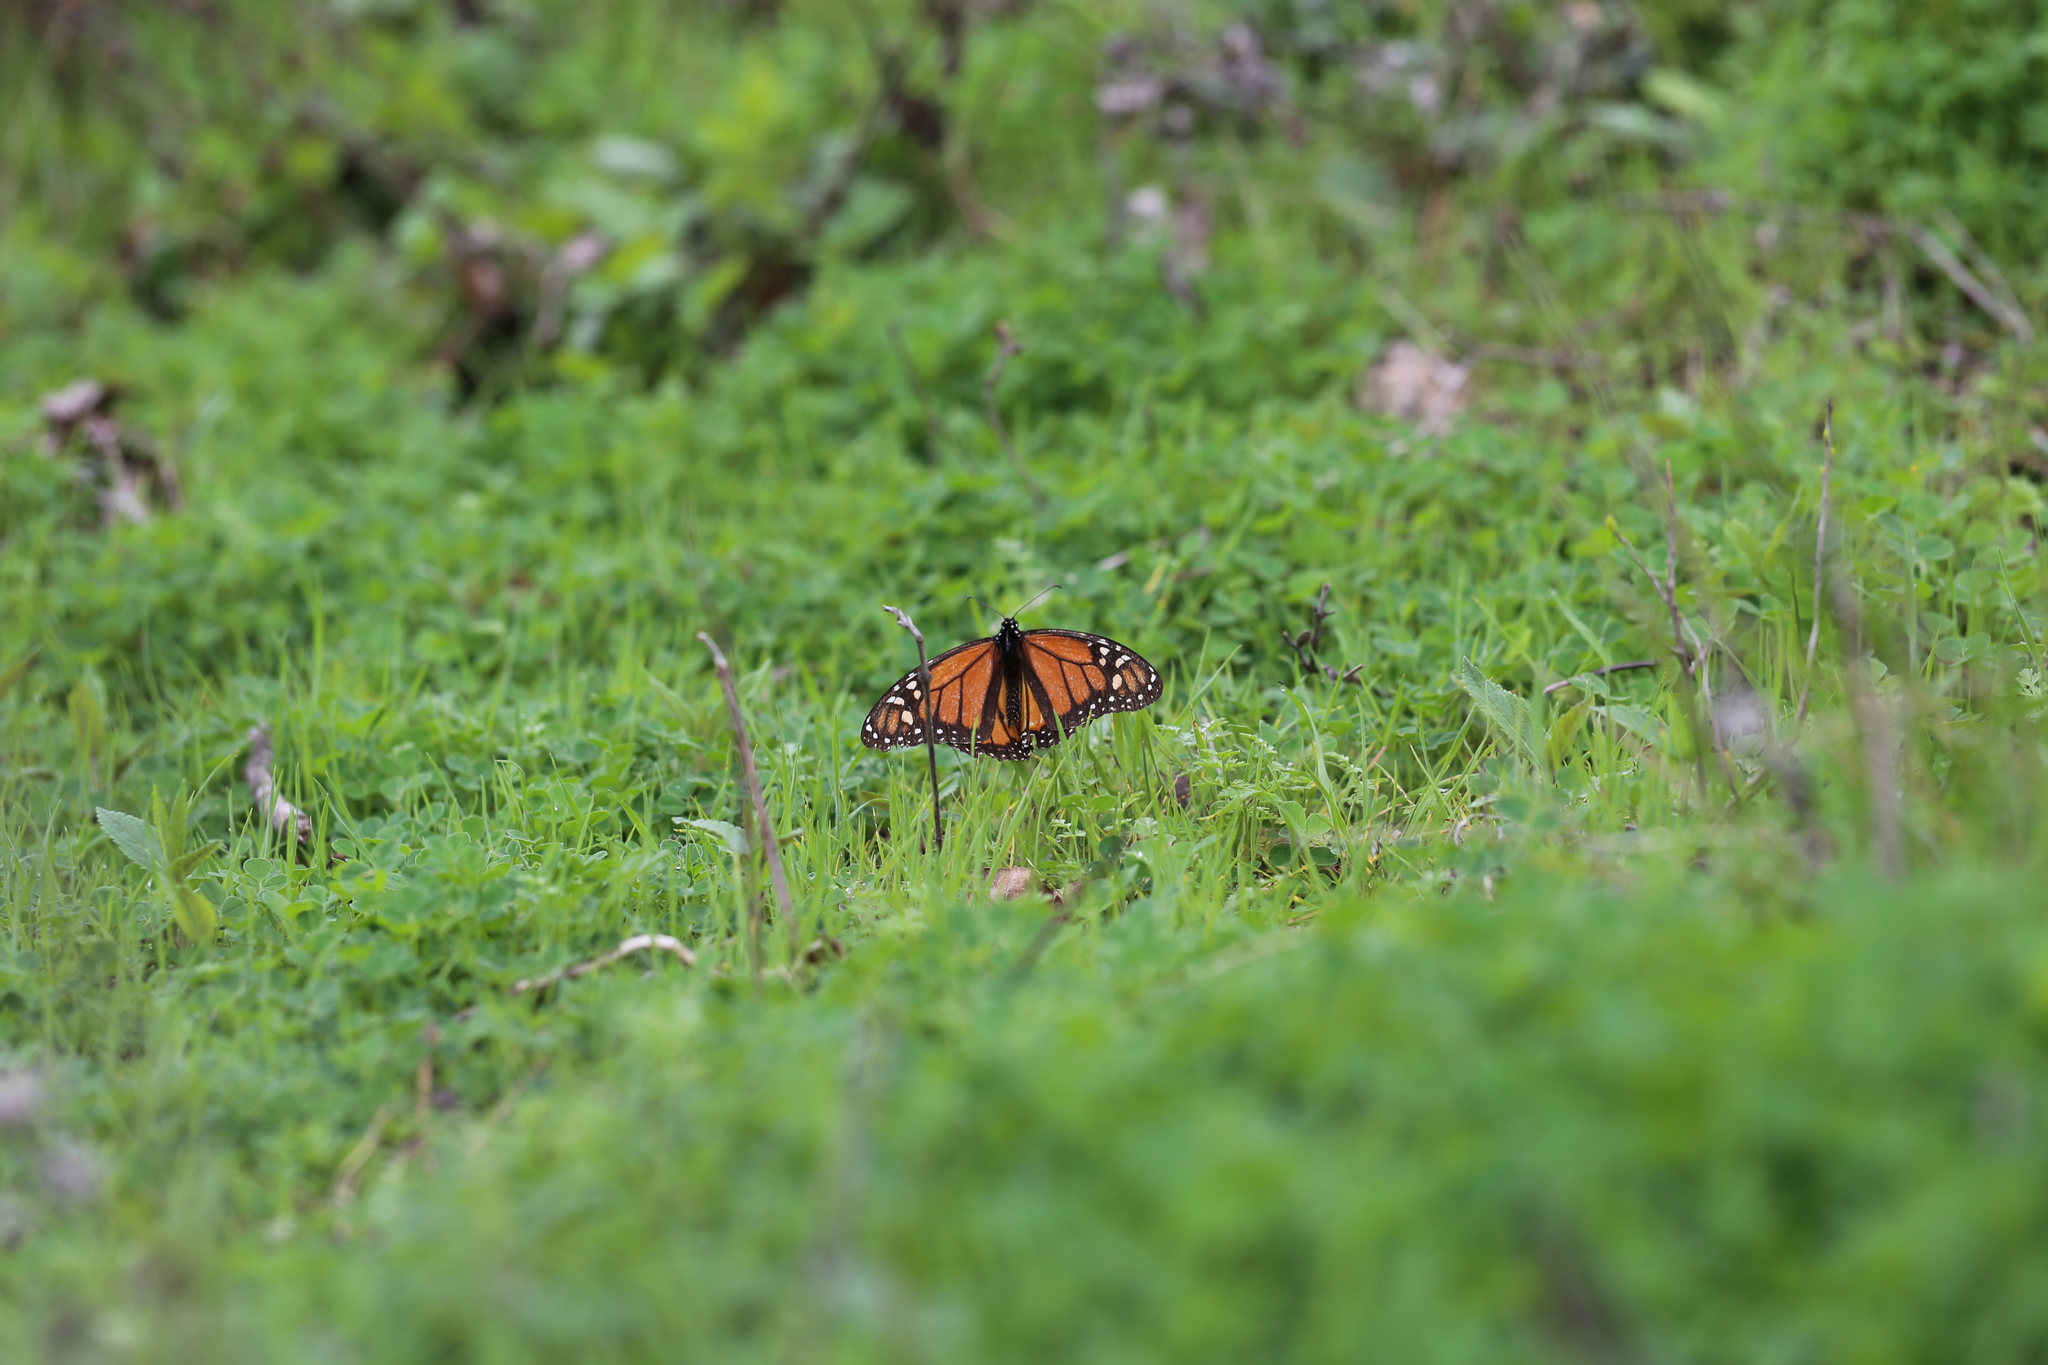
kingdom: Animalia
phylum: Arthropoda
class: Insecta
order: Lepidoptera
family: Nymphalidae
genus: Danaus
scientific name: Danaus plexippus
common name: Monarch
